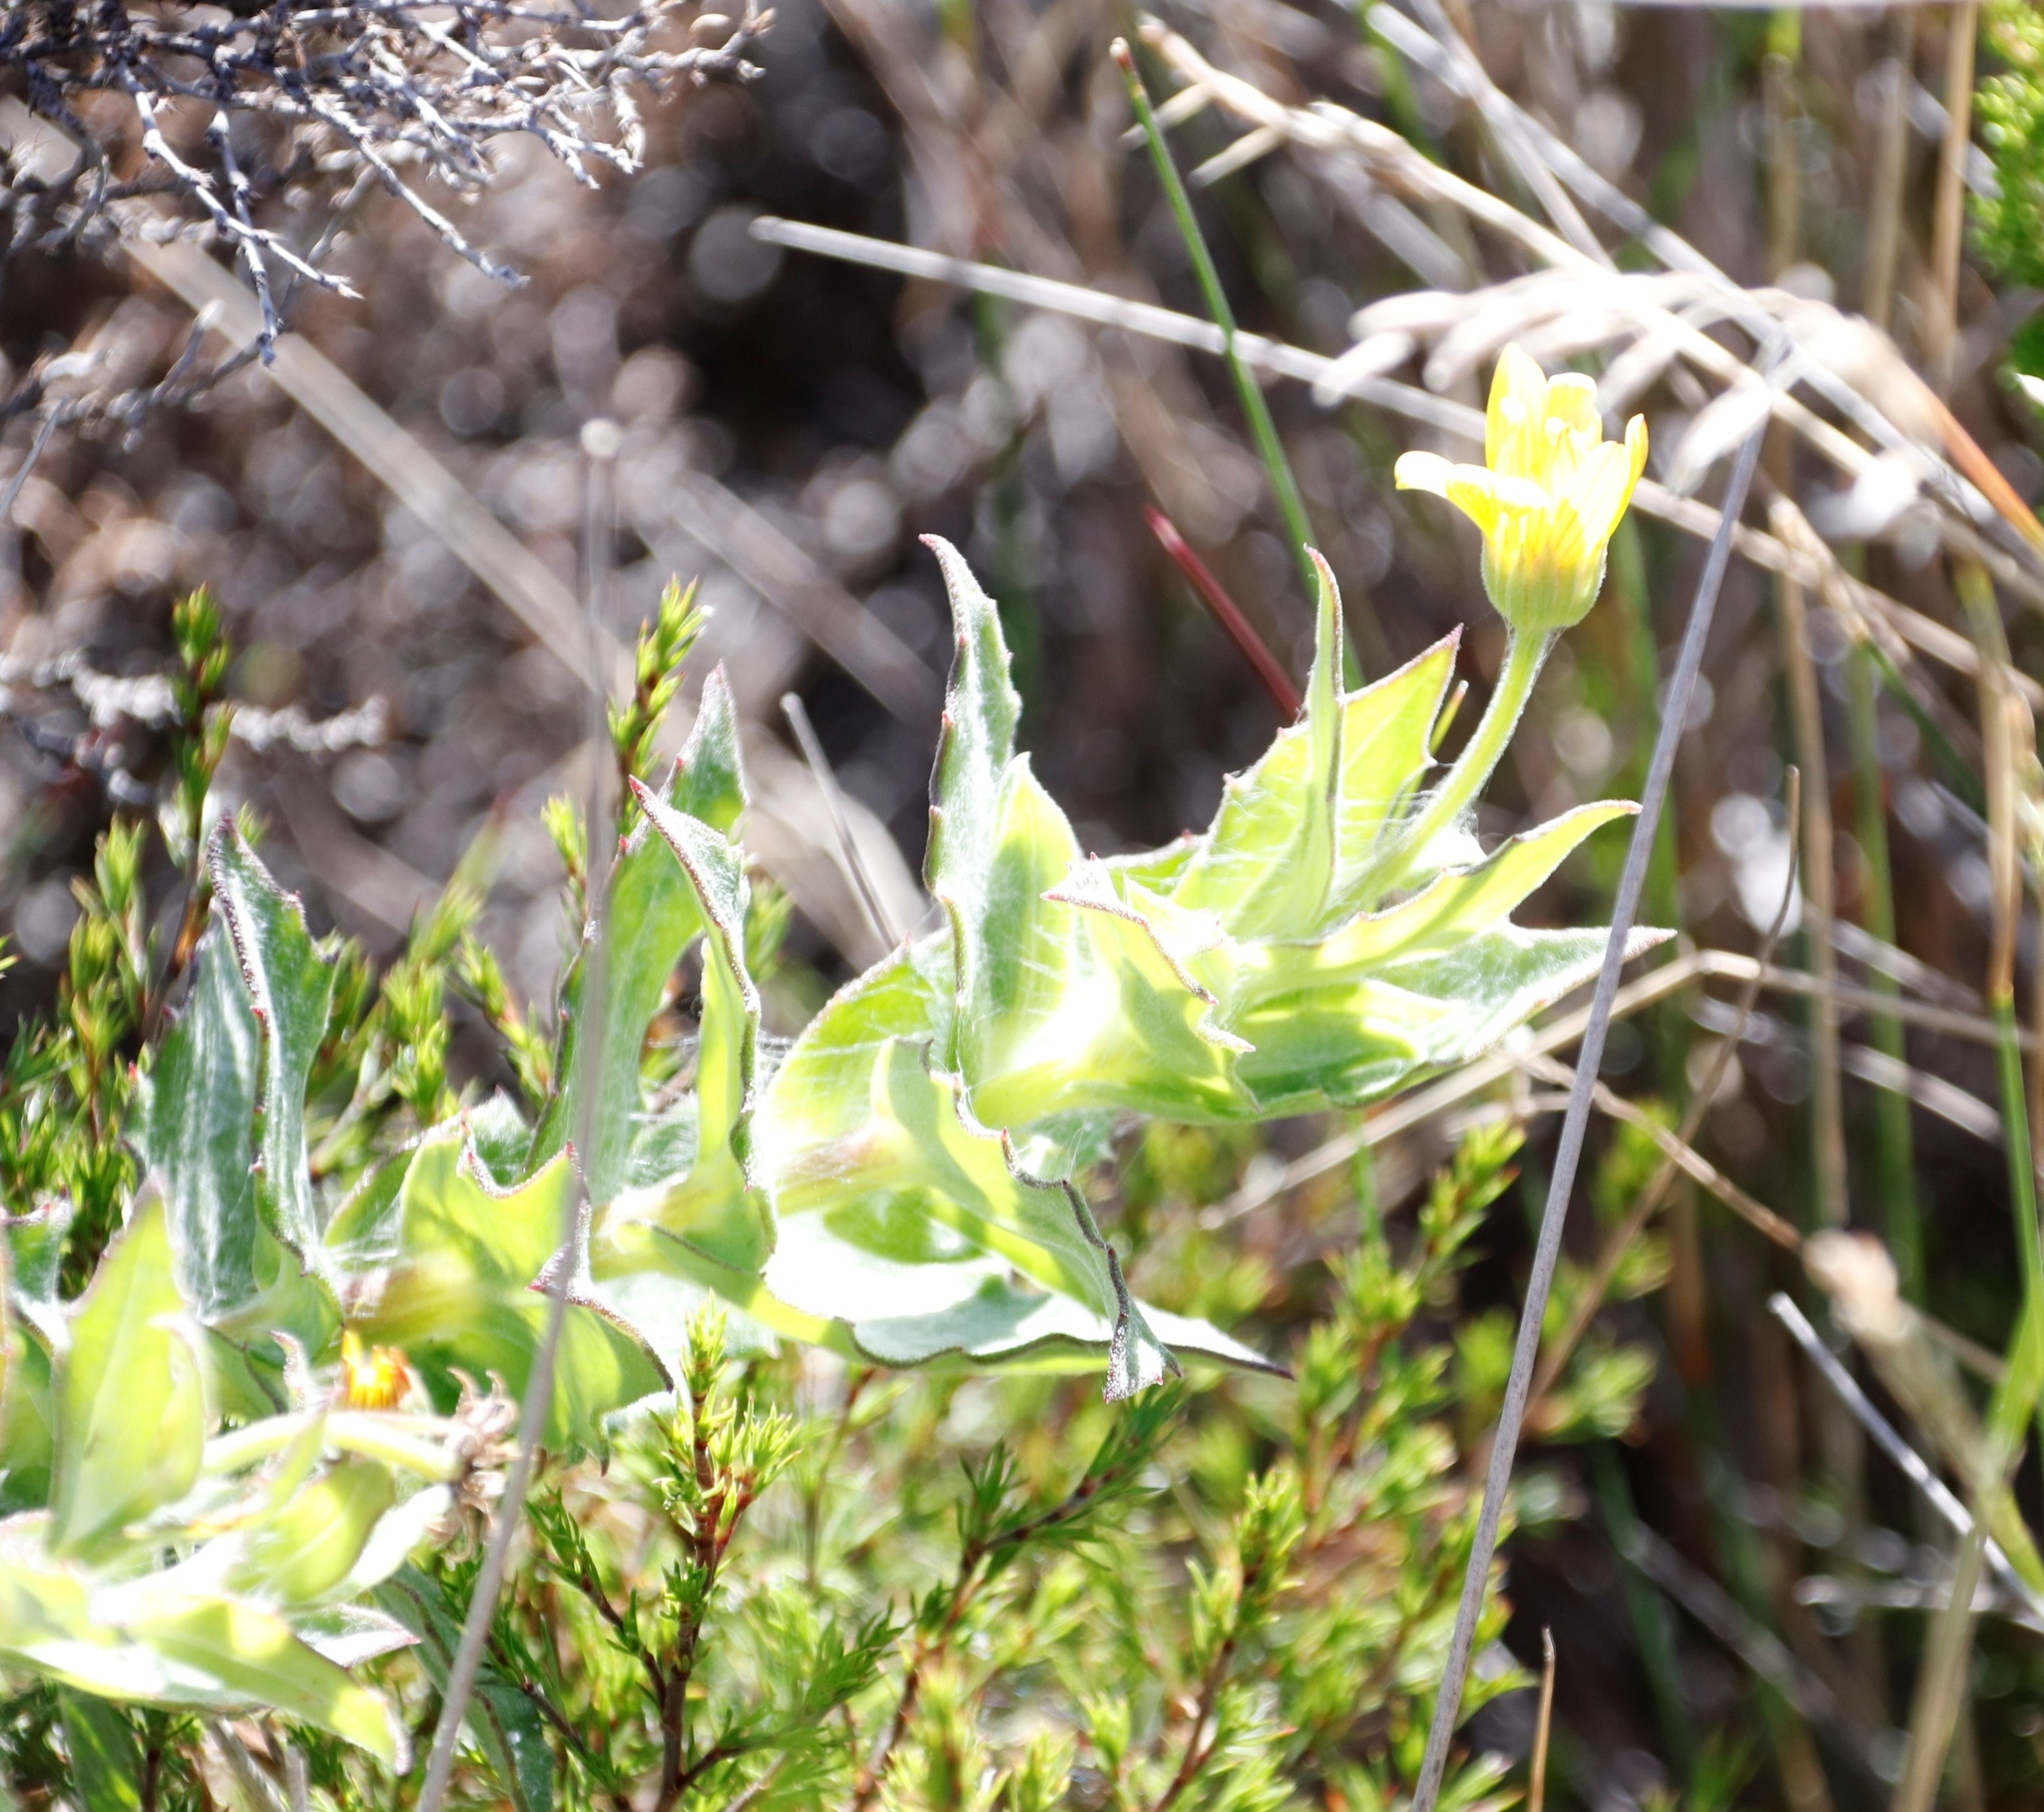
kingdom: Plantae
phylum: Tracheophyta
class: Magnoliopsida
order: Asterales
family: Asteraceae
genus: Osteospermum
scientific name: Osteospermum ilicifolium
